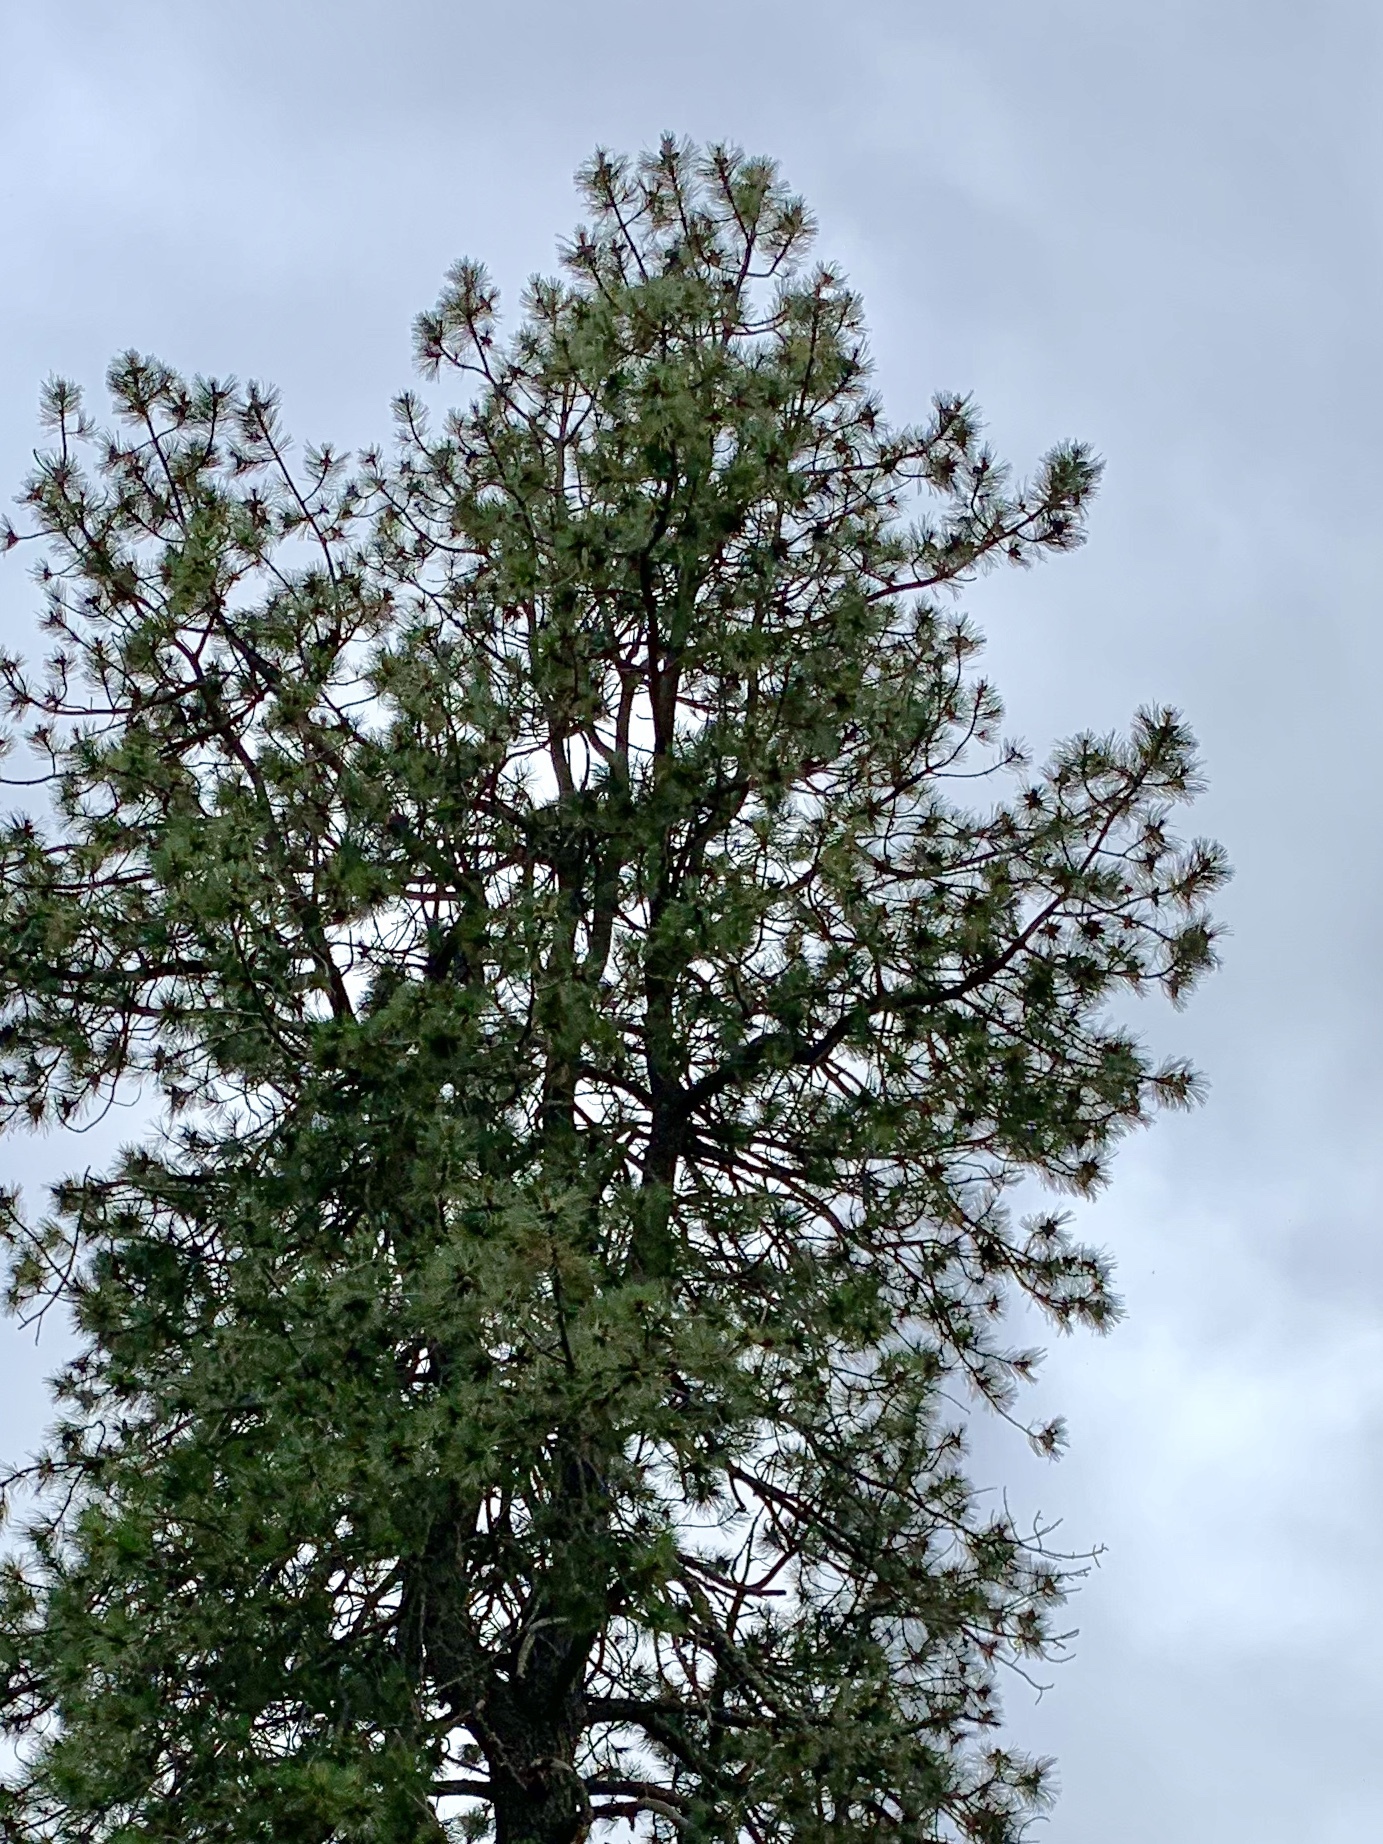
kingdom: Plantae
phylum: Tracheophyta
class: Pinopsida
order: Pinales
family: Pinaceae
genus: Pinus
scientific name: Pinus ponderosa
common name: Western yellow-pine
